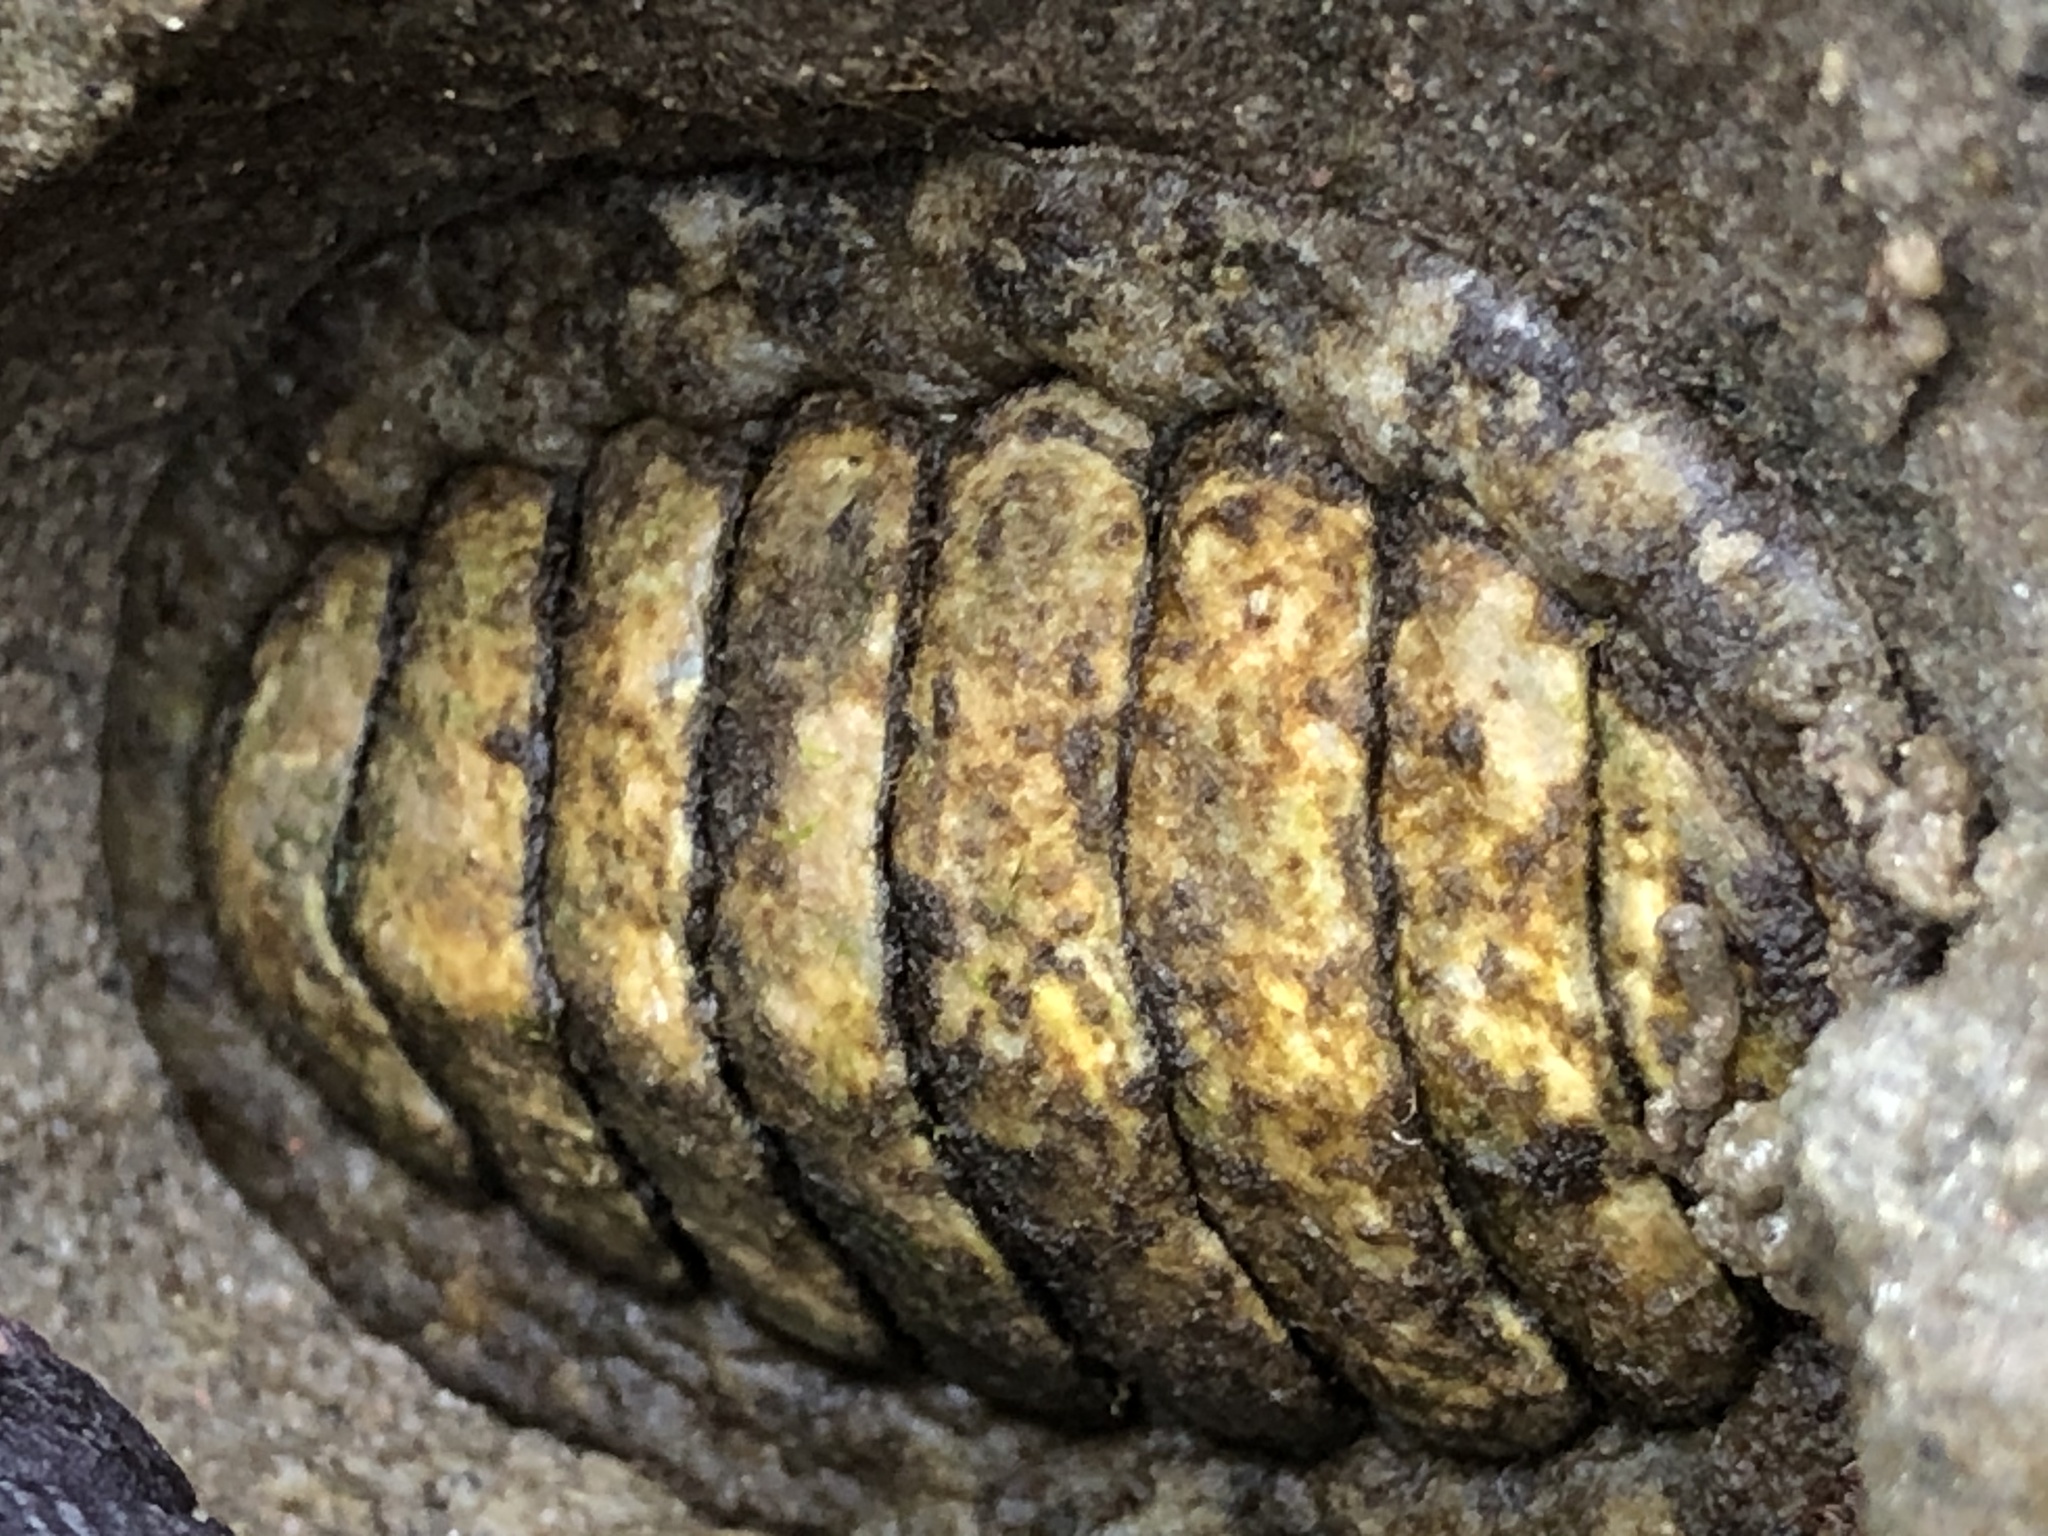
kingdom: Animalia
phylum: Mollusca
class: Polyplacophora
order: Chitonida
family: Tonicellidae
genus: Cyanoplax
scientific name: Cyanoplax hartwegii
